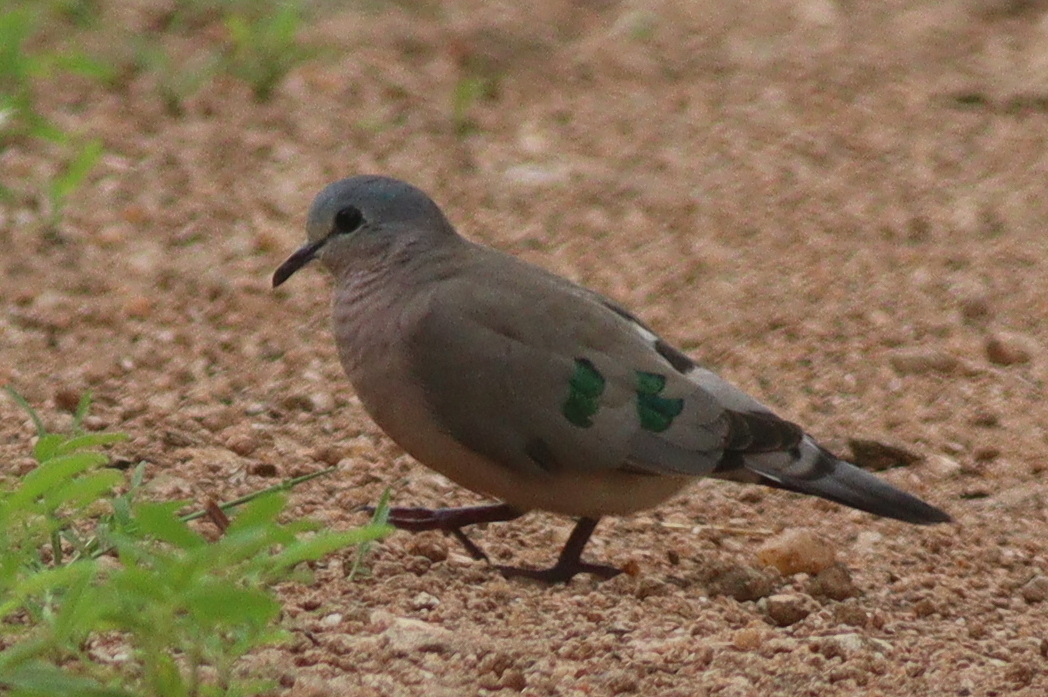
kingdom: Animalia
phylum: Chordata
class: Aves
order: Columbiformes
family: Columbidae
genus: Turtur
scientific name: Turtur chalcospilos
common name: Emerald-spotted wood dove
